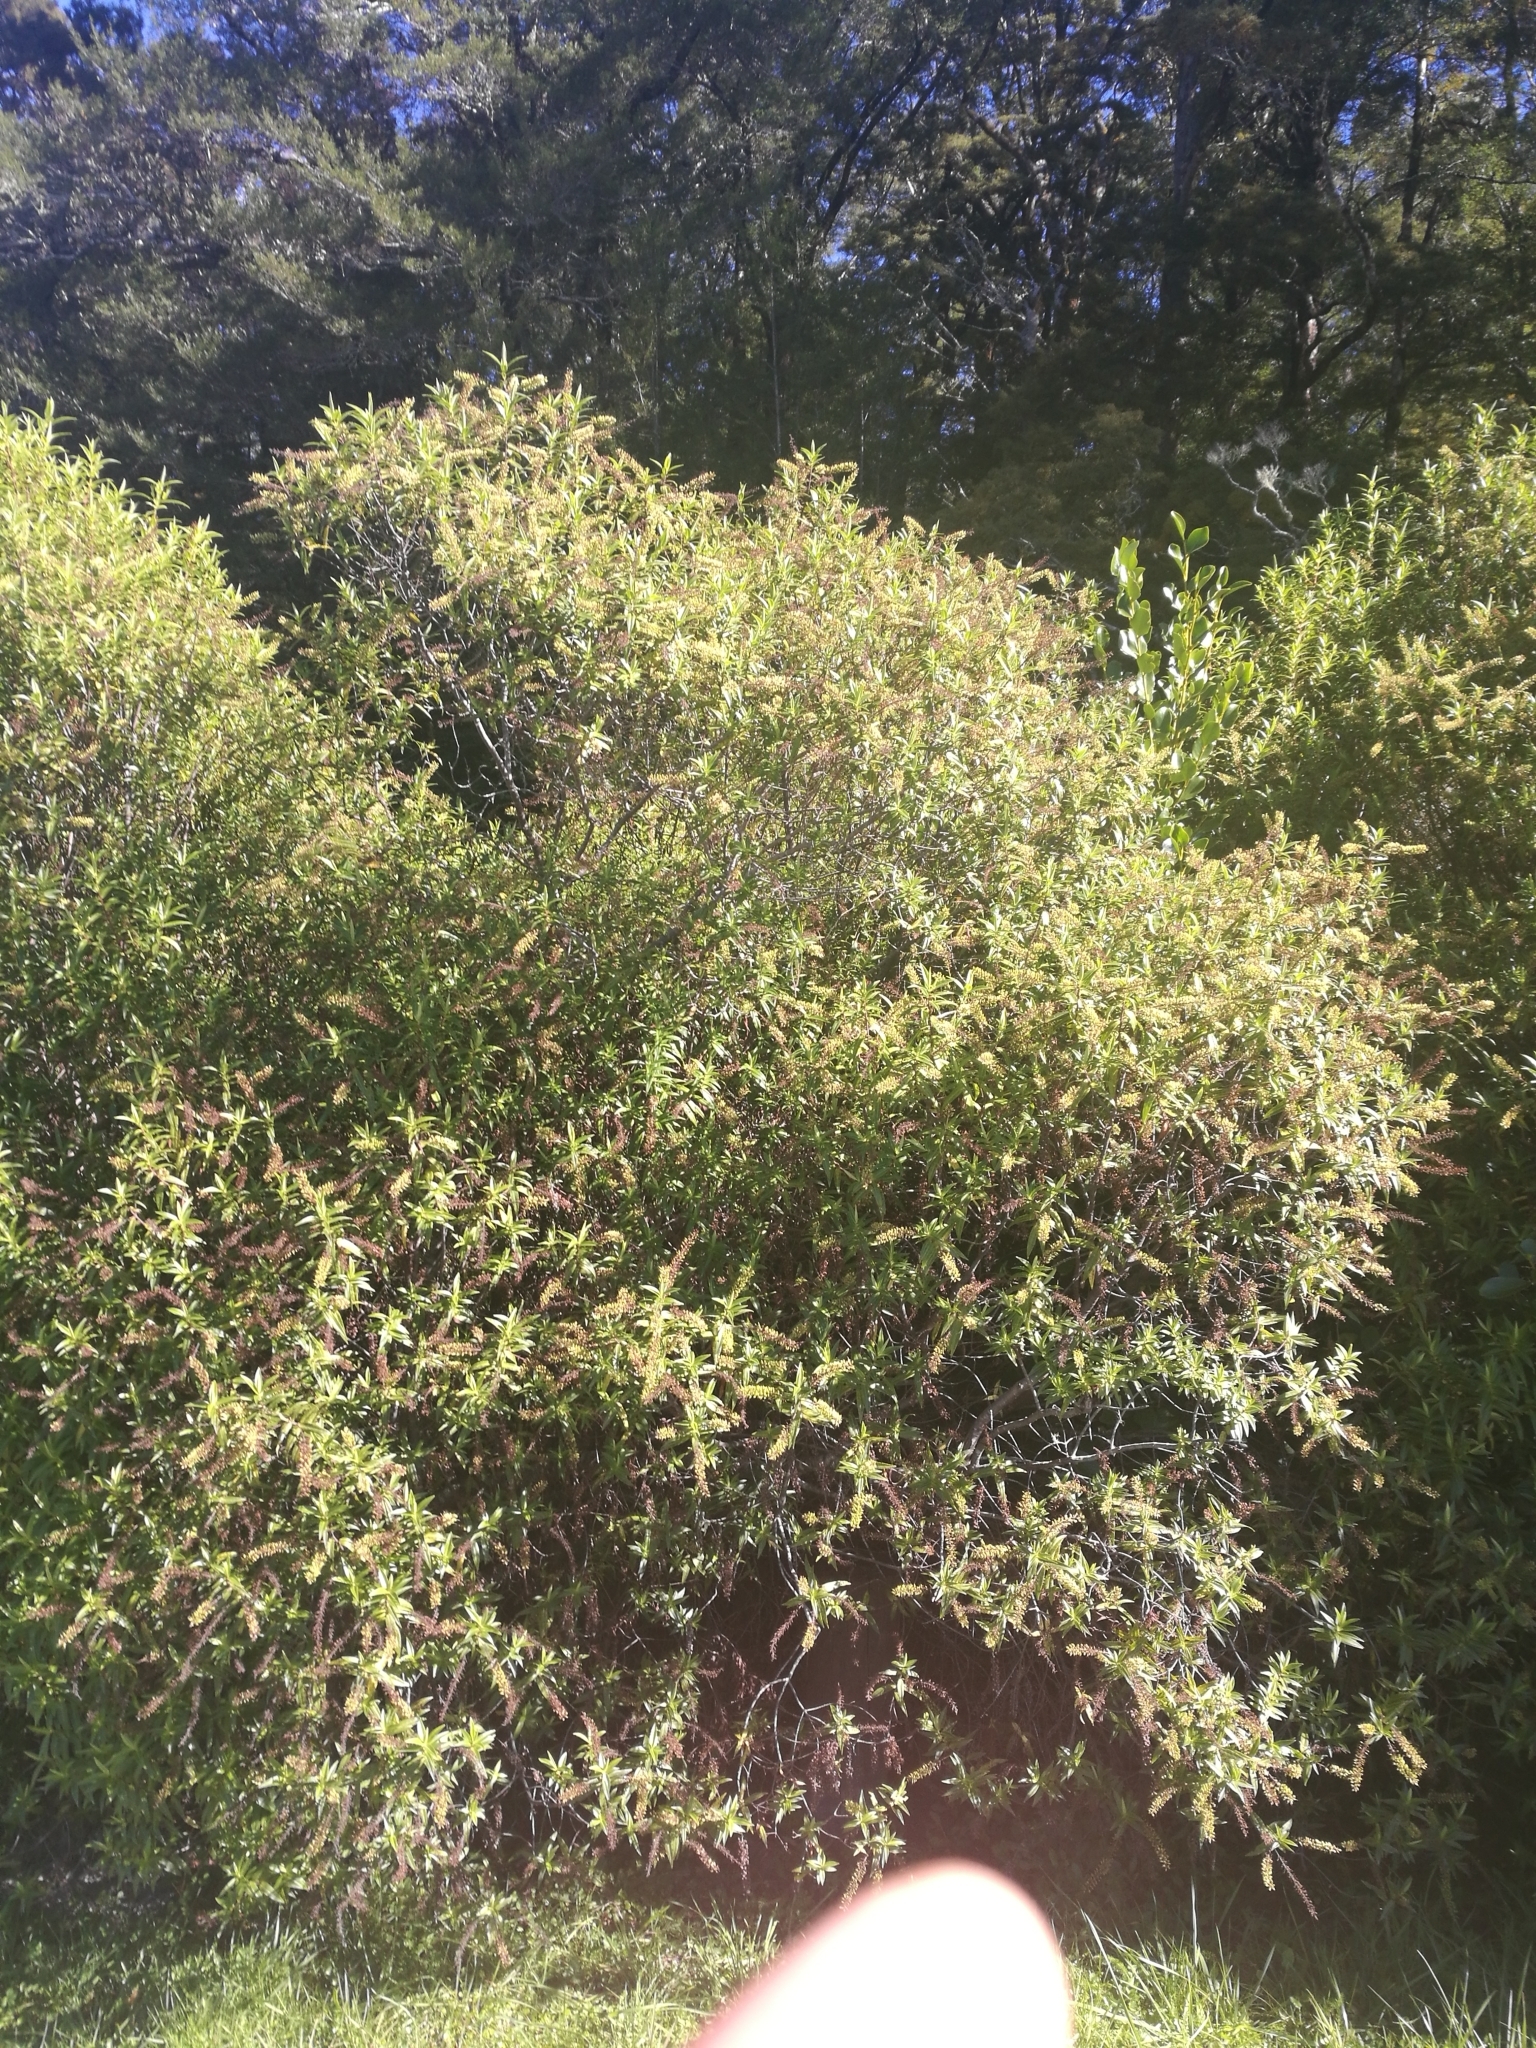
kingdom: Plantae
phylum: Tracheophyta
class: Magnoliopsida
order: Lamiales
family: Plantaginaceae
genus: Veronica
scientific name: Veronica salicifolia
